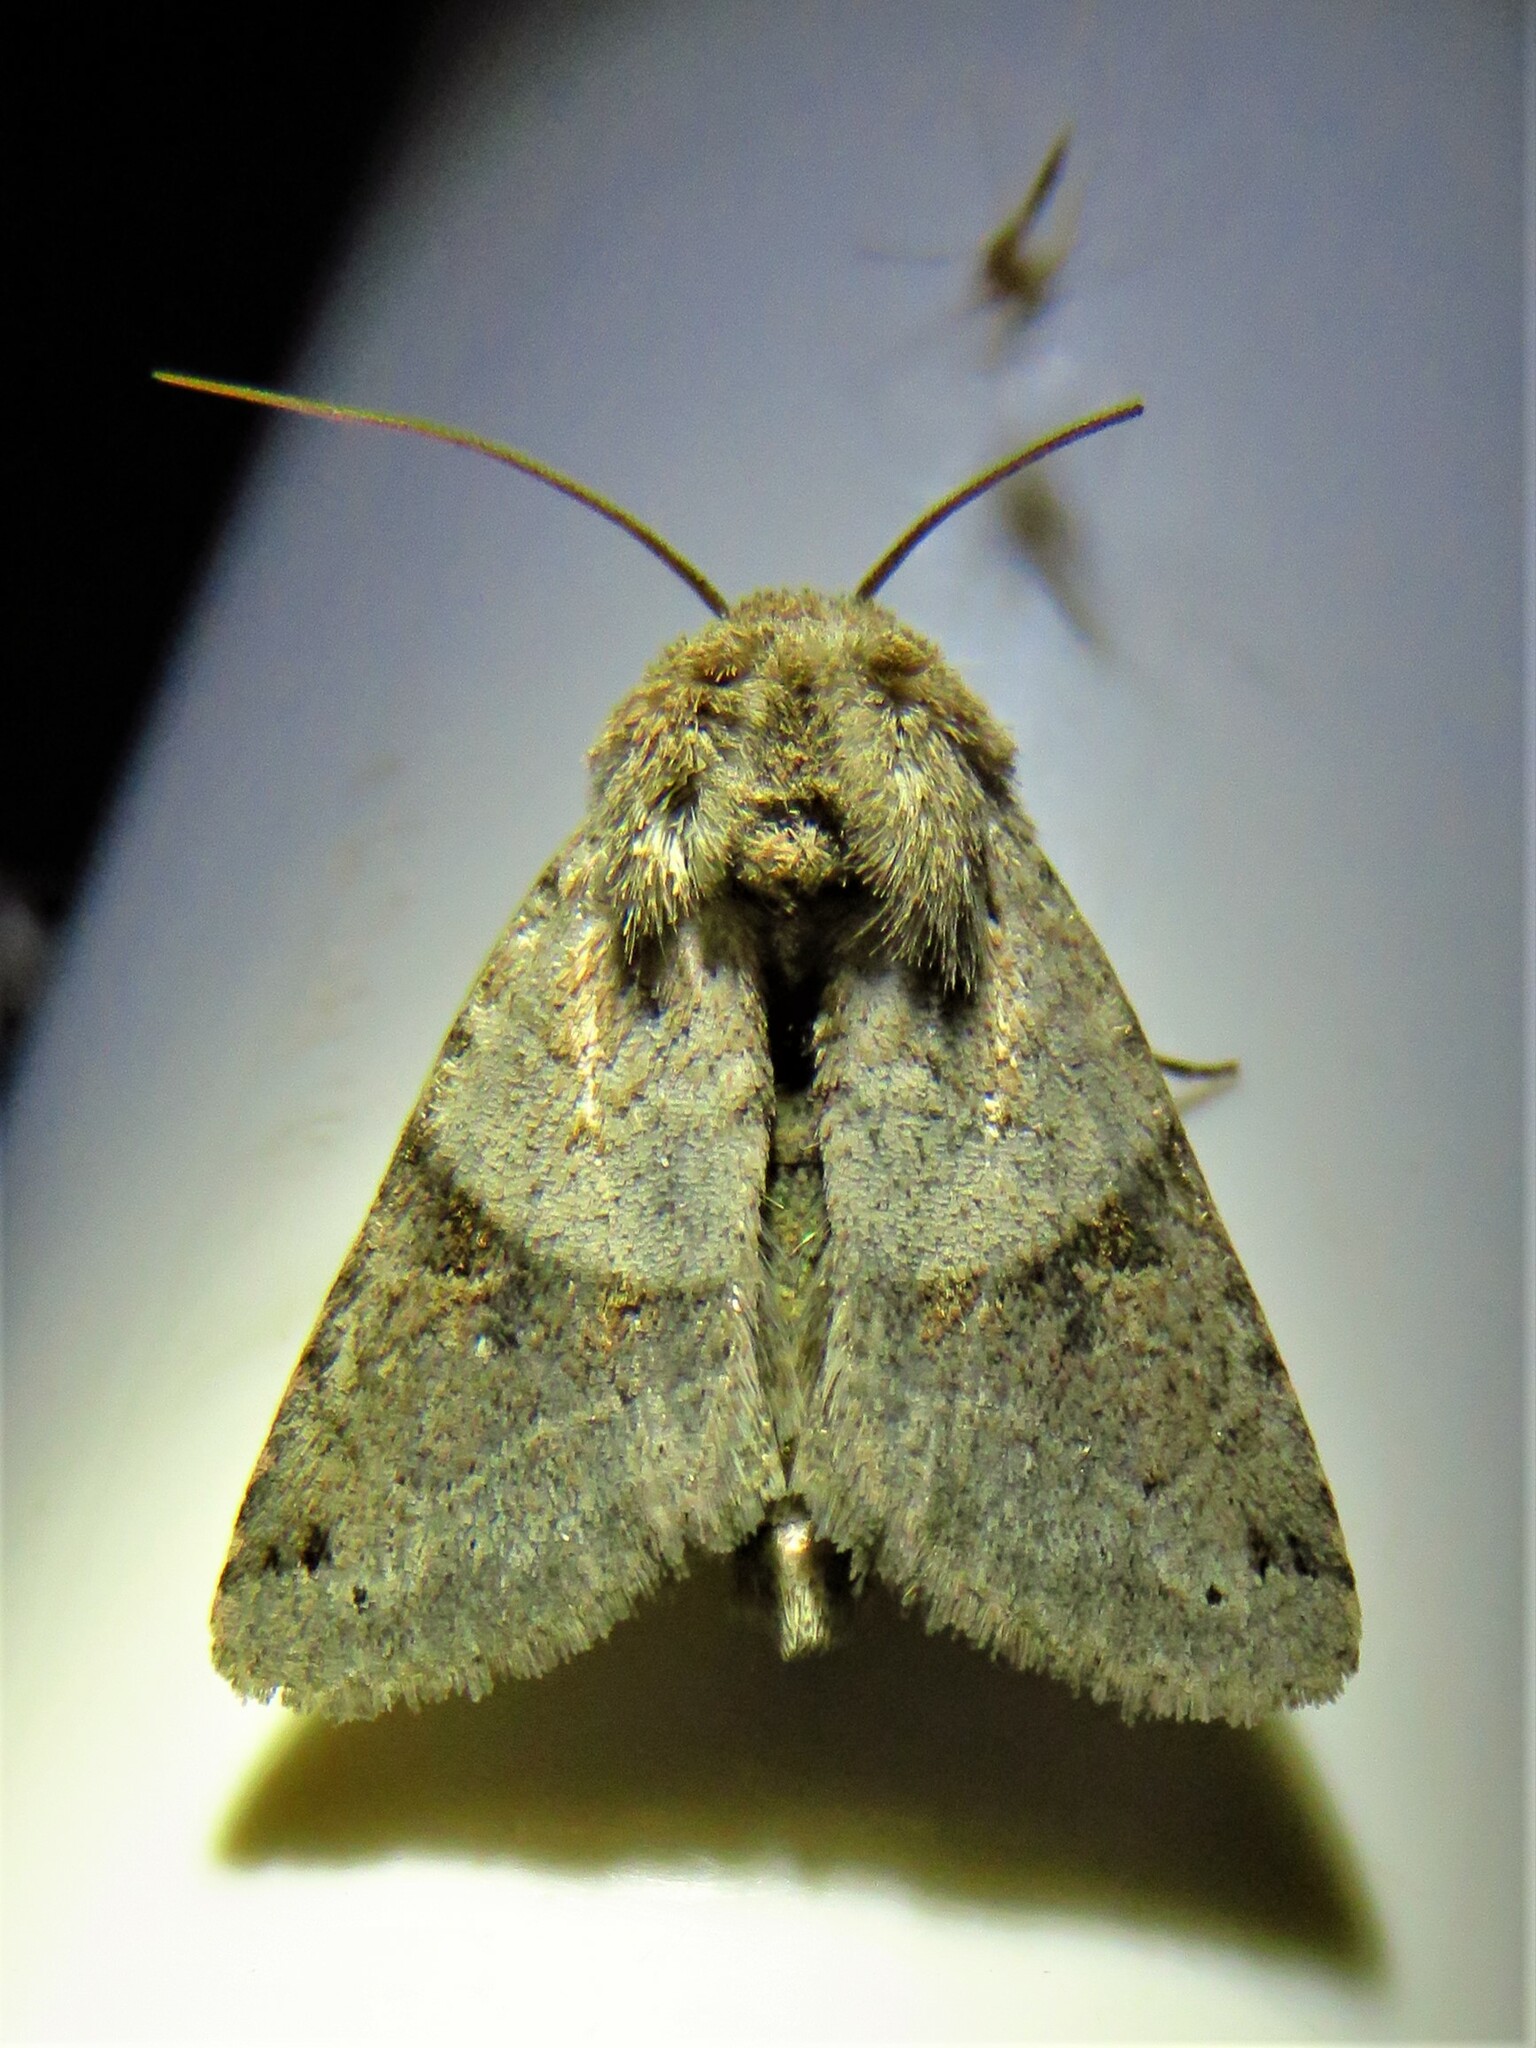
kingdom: Animalia
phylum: Arthropoda
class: Insecta
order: Lepidoptera
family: Noctuidae
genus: Ulolonche
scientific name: Ulolonche disticha
